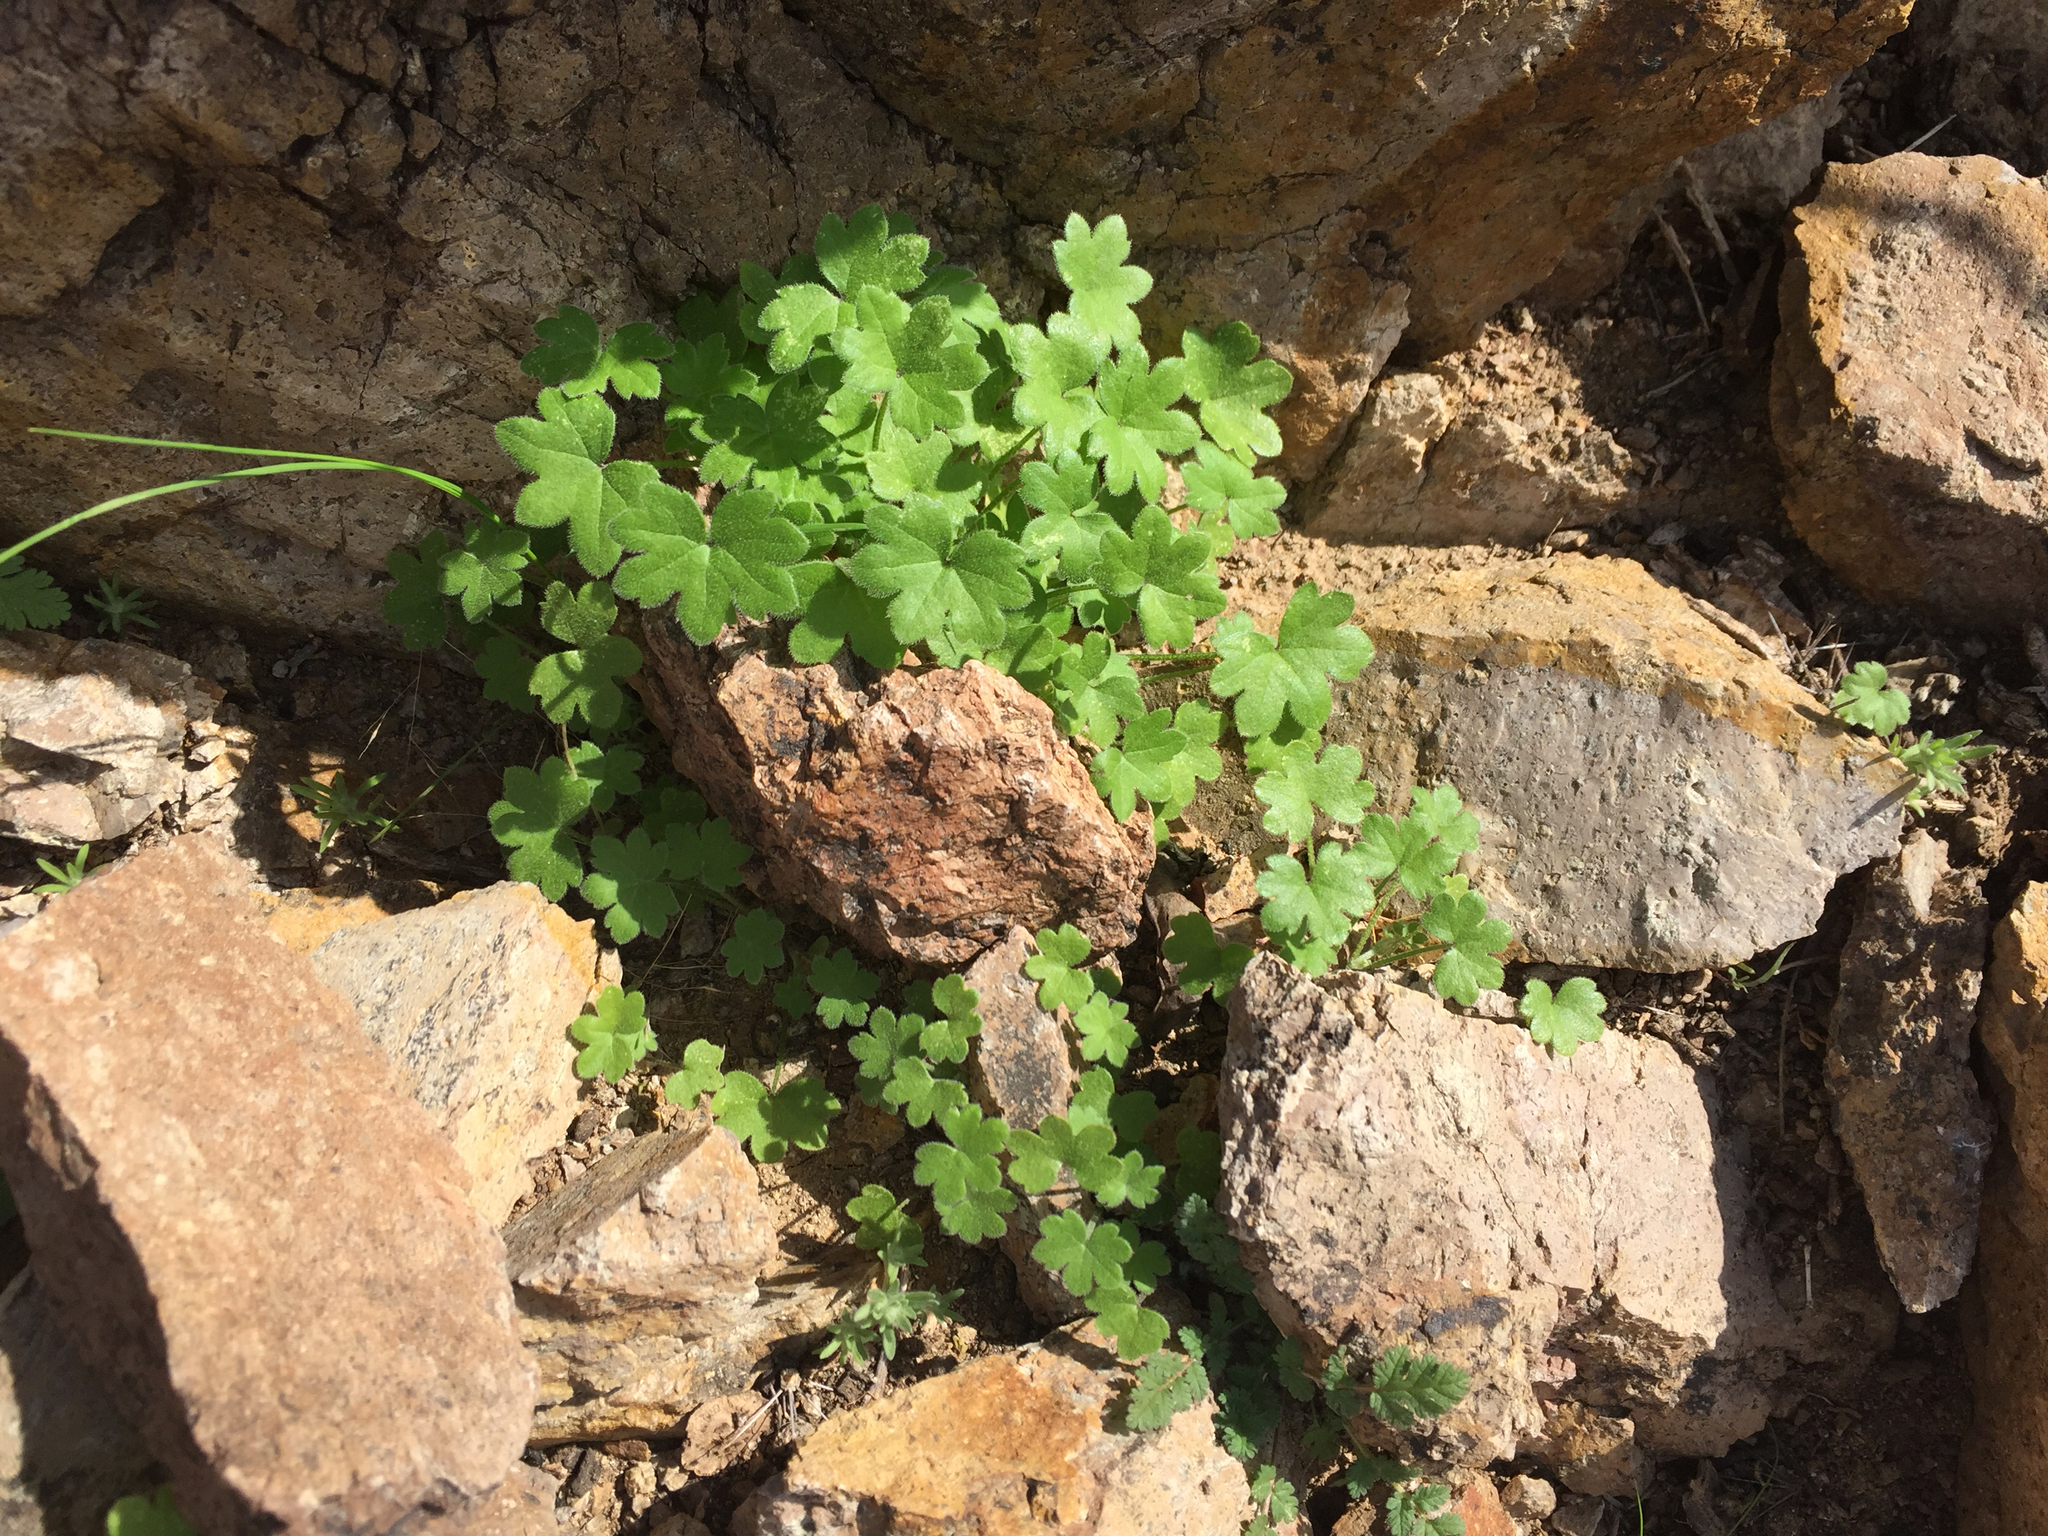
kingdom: Plantae
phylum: Tracheophyta
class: Magnoliopsida
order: Apiales
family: Apiaceae
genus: Bowlesia
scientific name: Bowlesia incana
